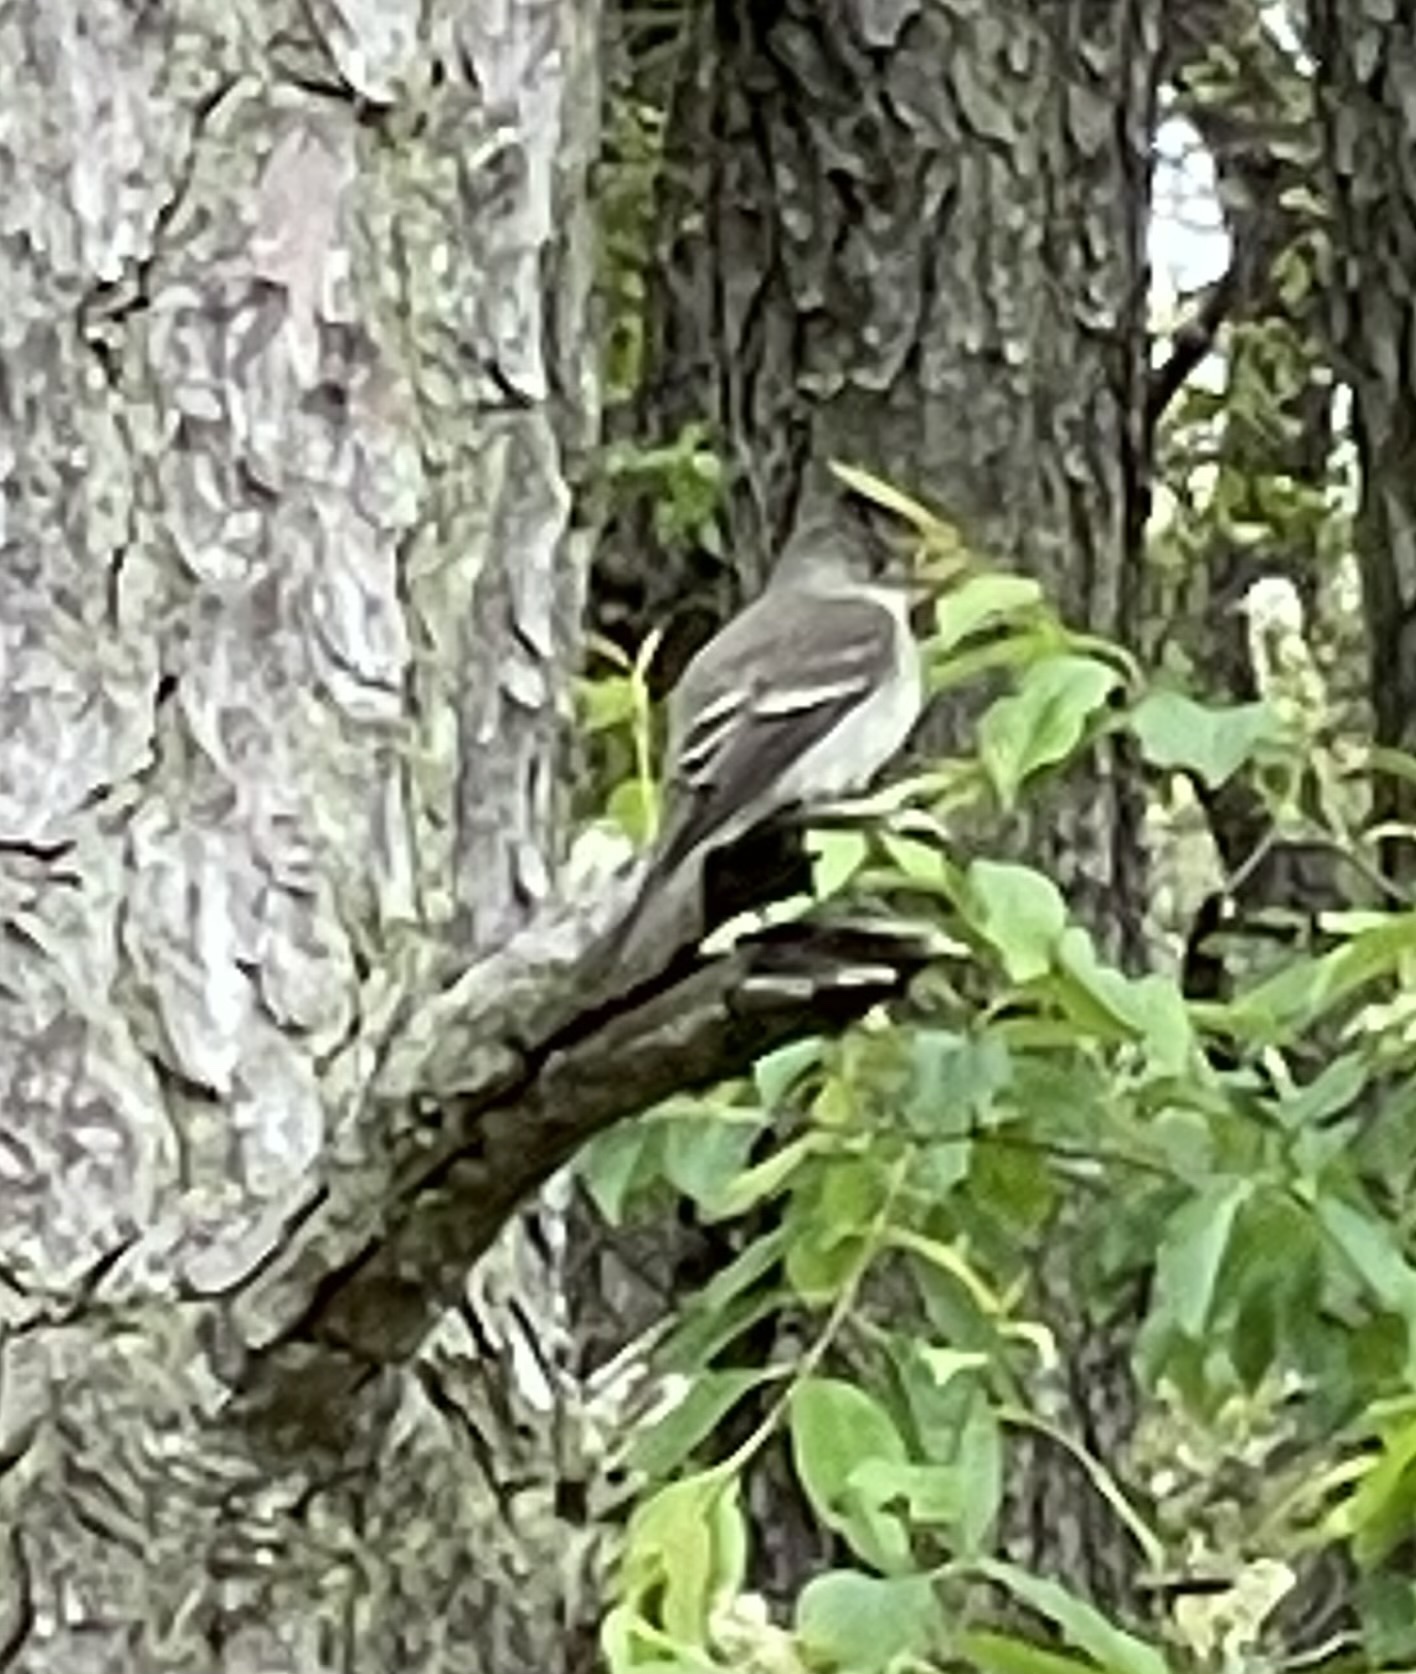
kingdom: Animalia
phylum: Chordata
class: Aves
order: Passeriformes
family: Tyrannidae
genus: Contopus
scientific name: Contopus virens
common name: Eastern wood-pewee
